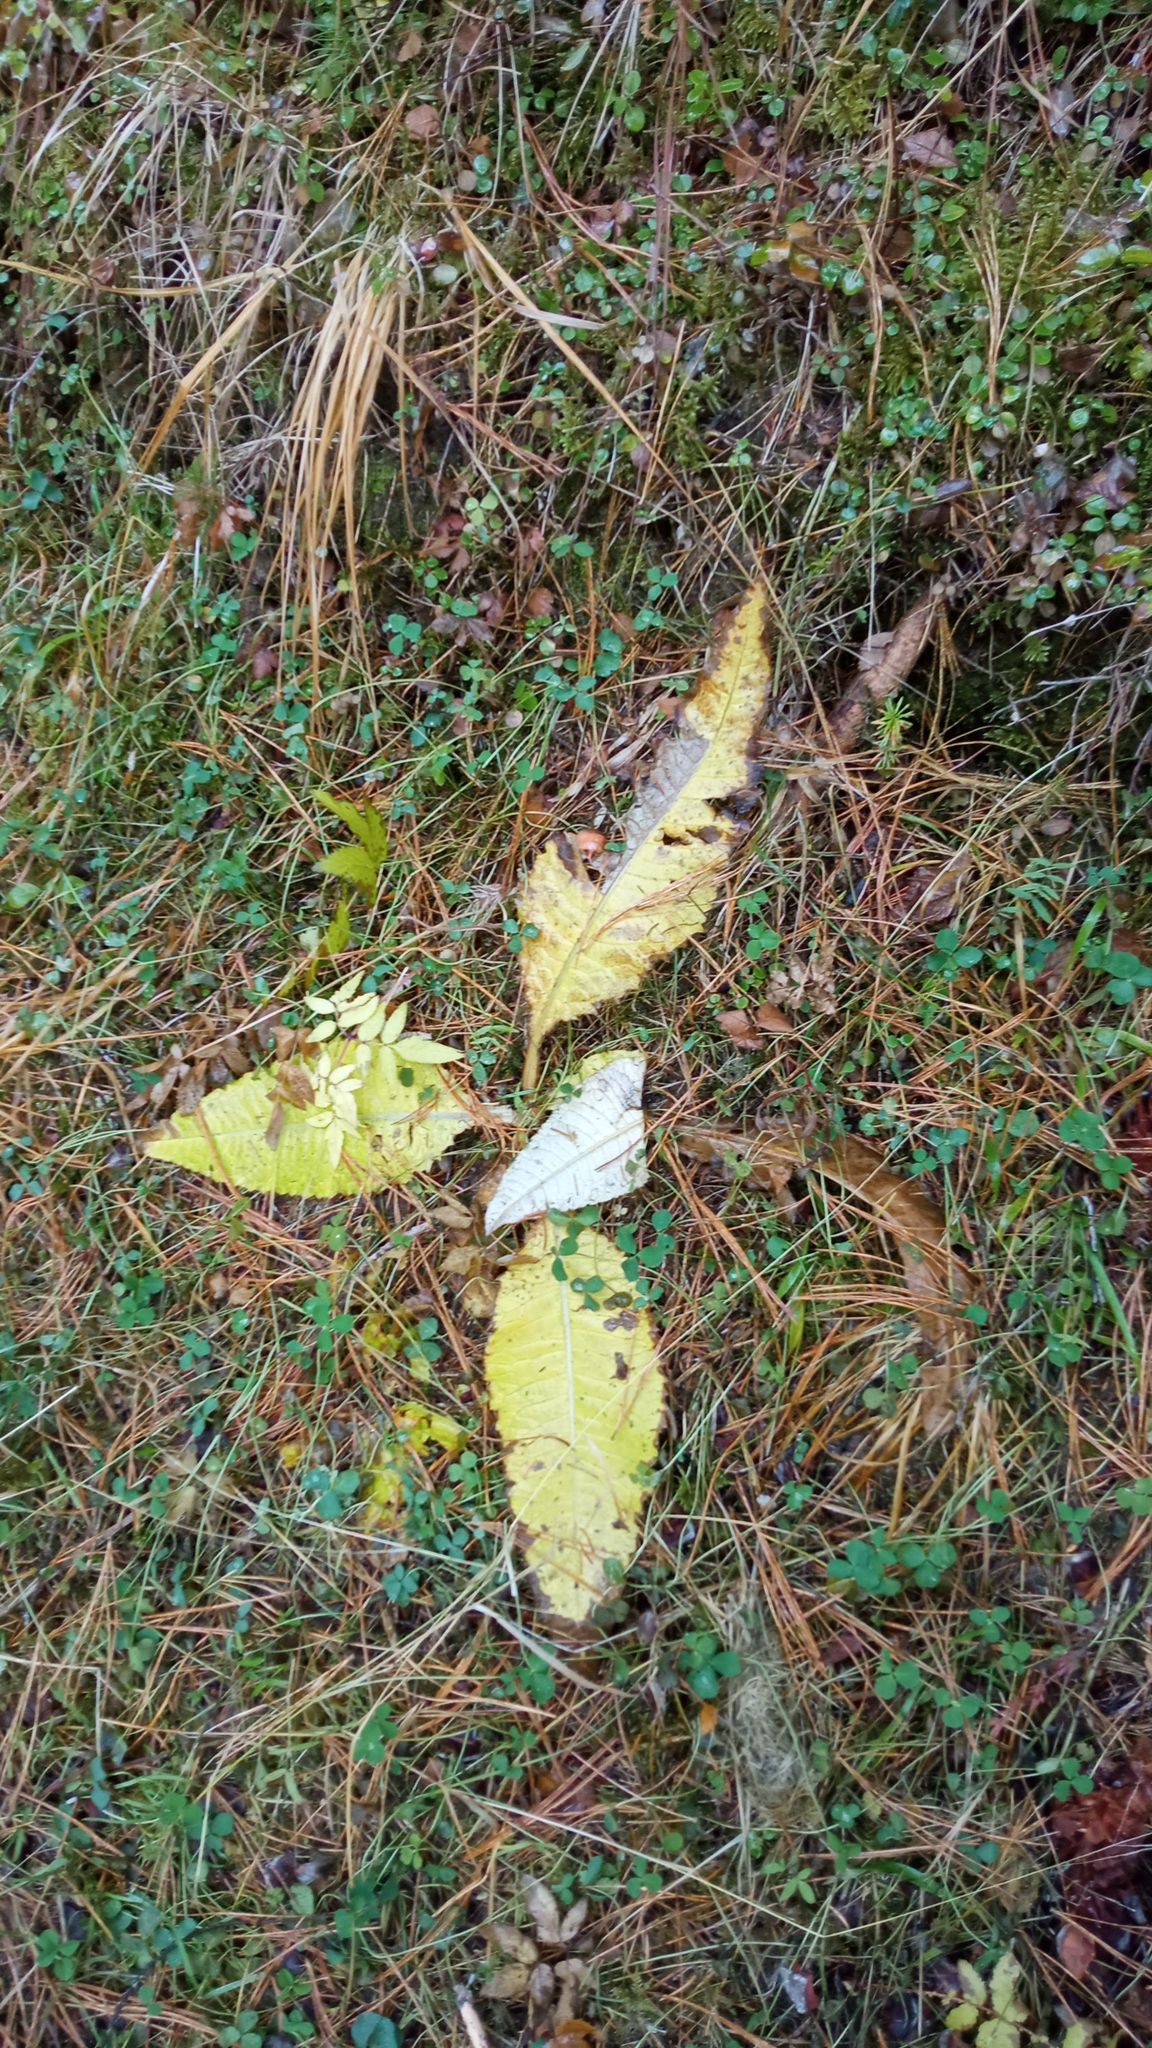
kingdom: Plantae
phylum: Tracheophyta
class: Magnoliopsida
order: Asterales
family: Asteraceae
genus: Cirsium
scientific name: Cirsium heterophyllum
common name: Melancholy thistle
